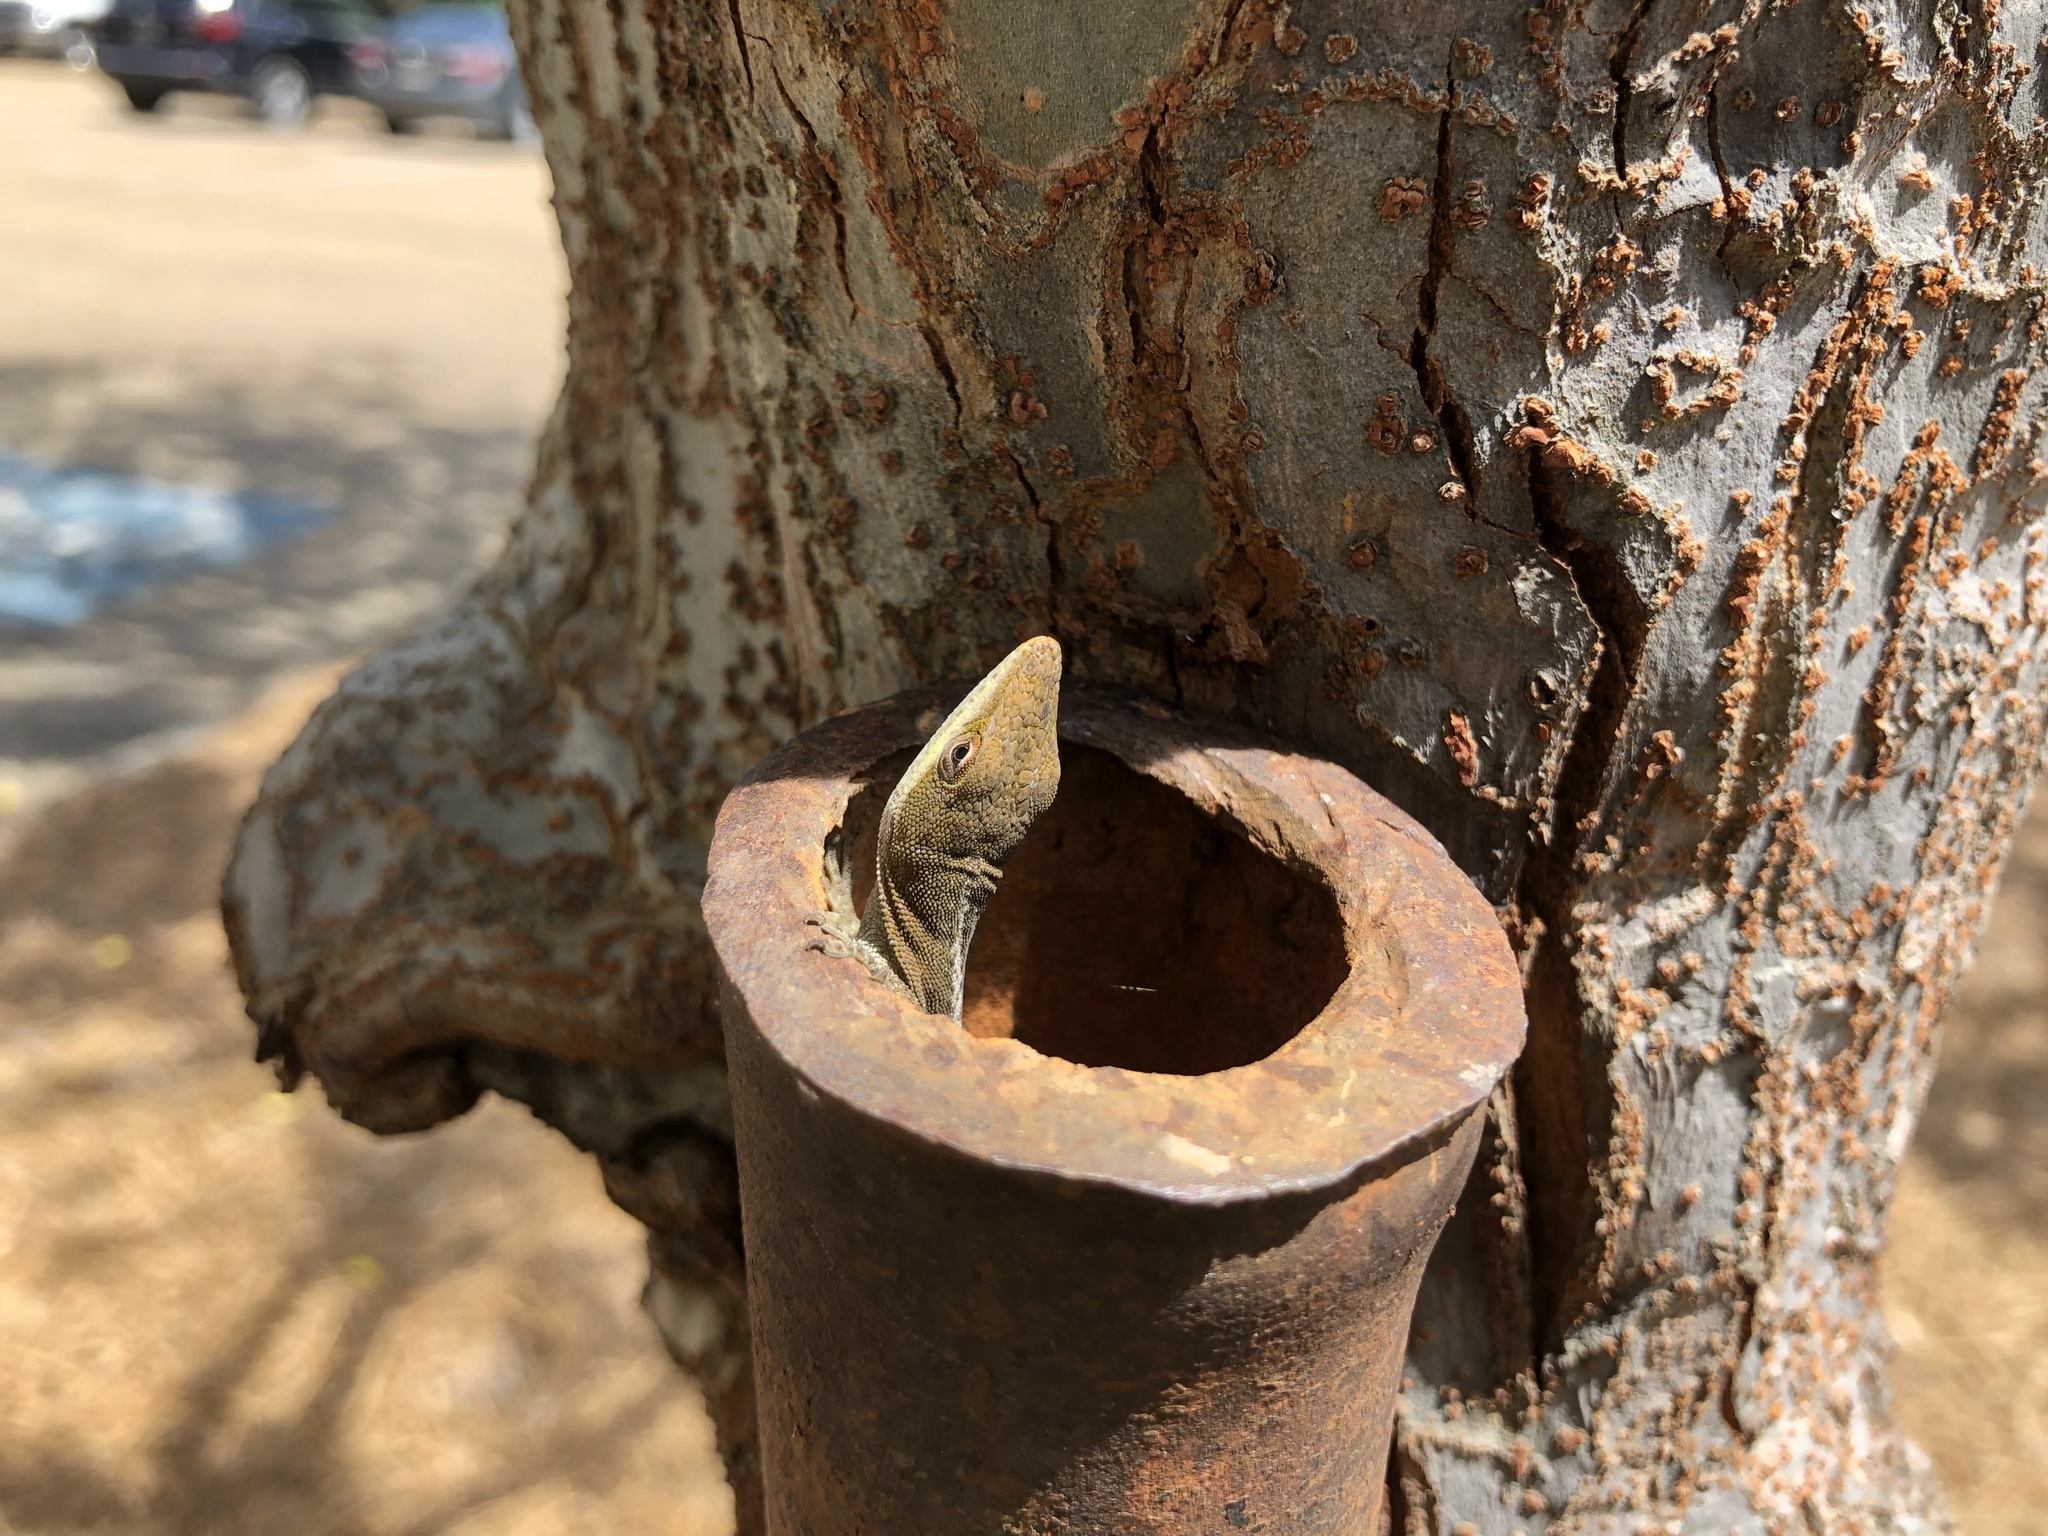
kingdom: Animalia
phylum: Chordata
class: Squamata
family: Dactyloidae
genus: Anolis
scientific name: Anolis carolinensis
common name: Green anole
